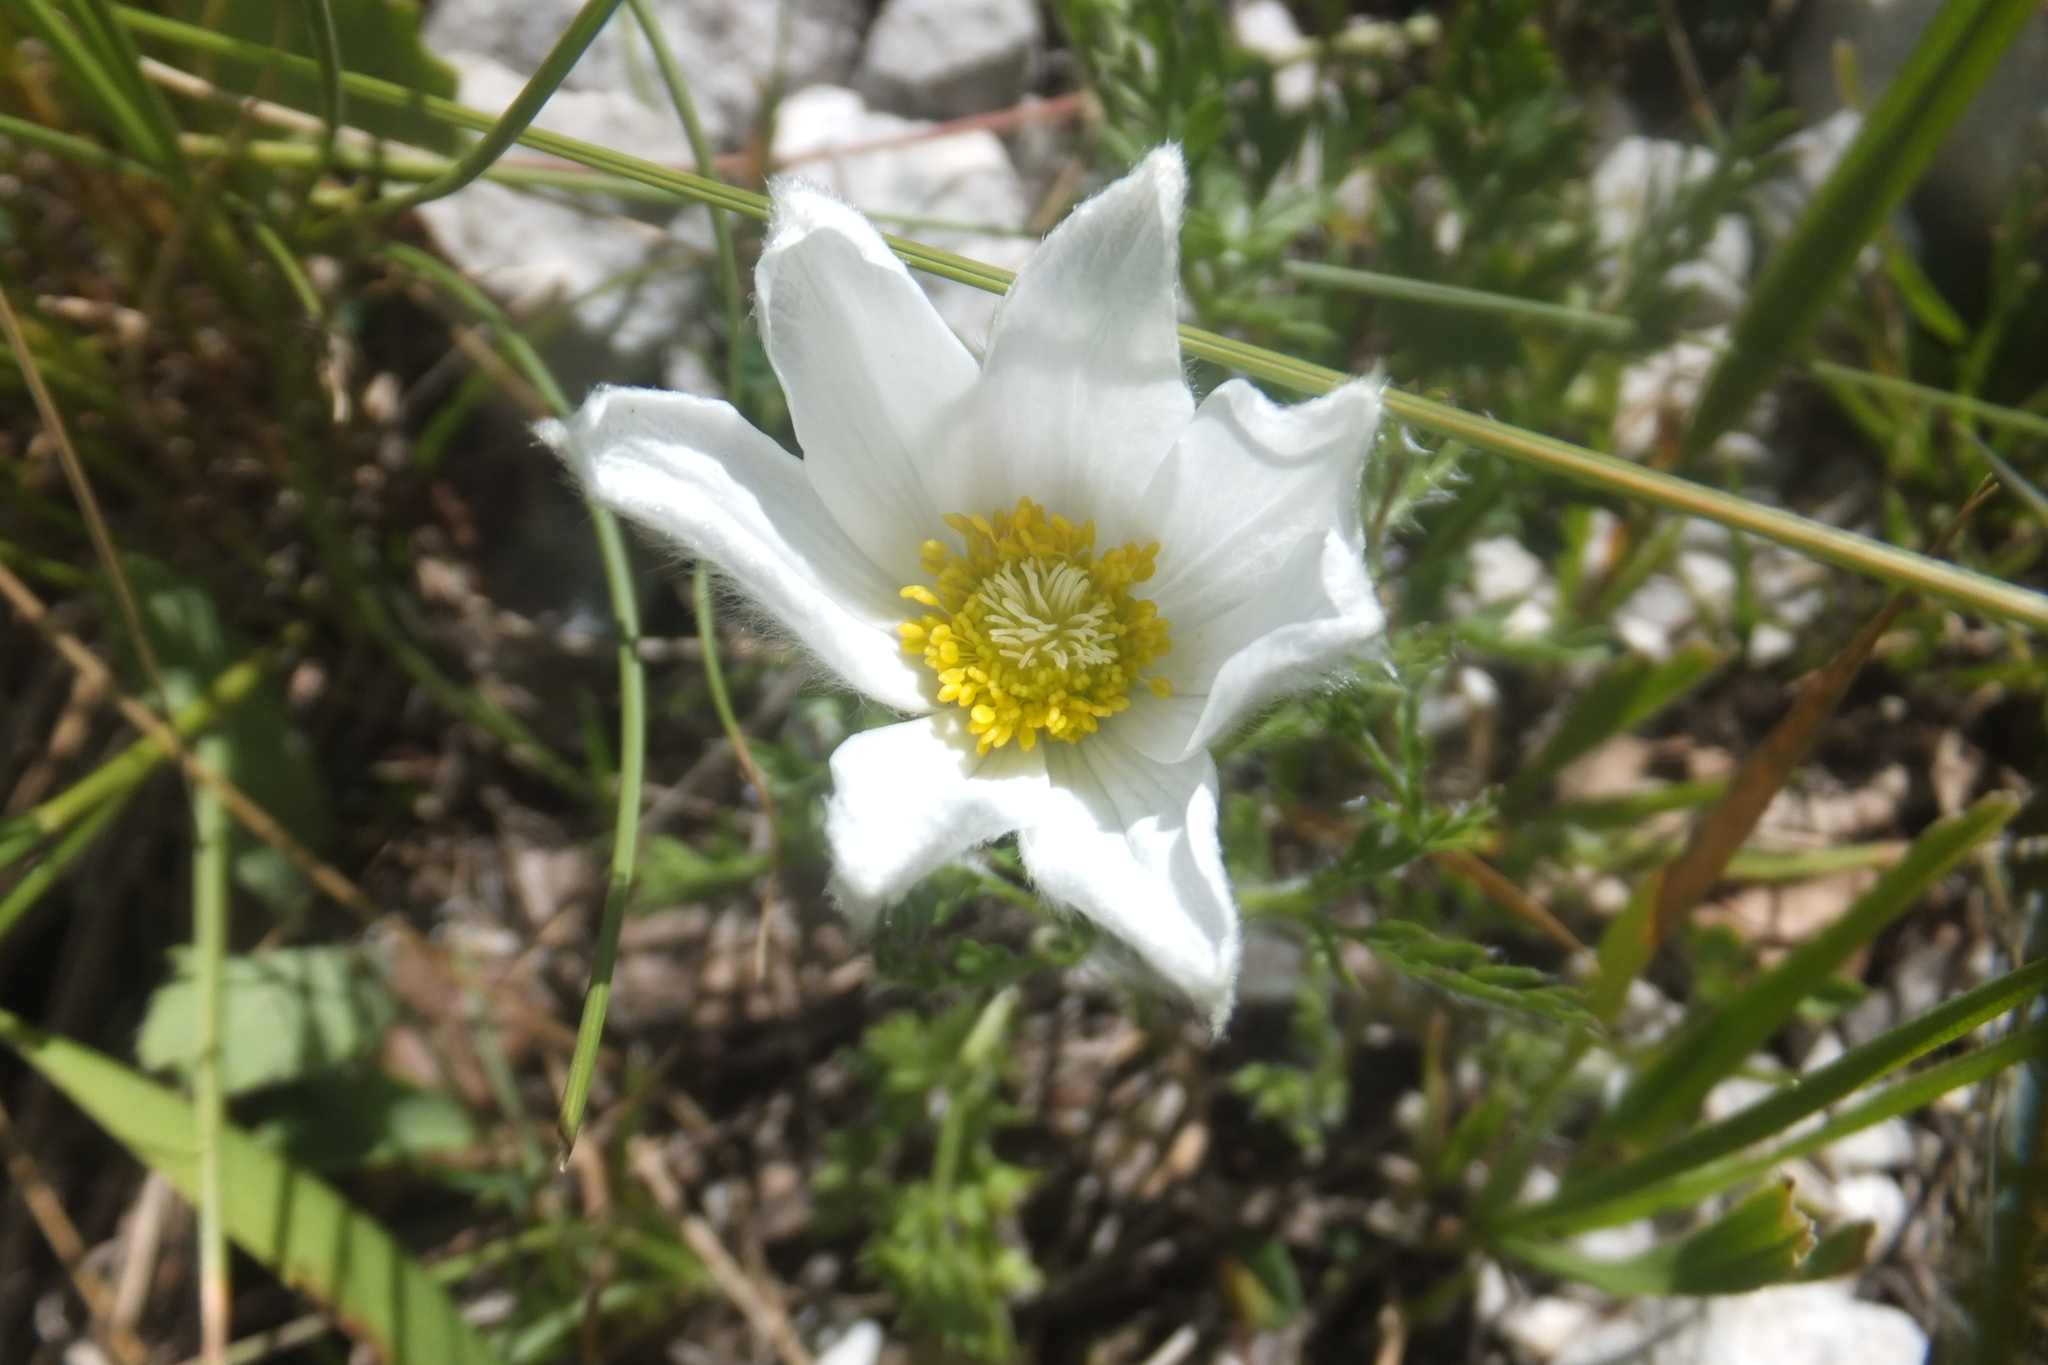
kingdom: Plantae
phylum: Tracheophyta
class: Magnoliopsida
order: Ranunculales
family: Ranunculaceae
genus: Pulsatilla
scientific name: Pulsatilla alpina
